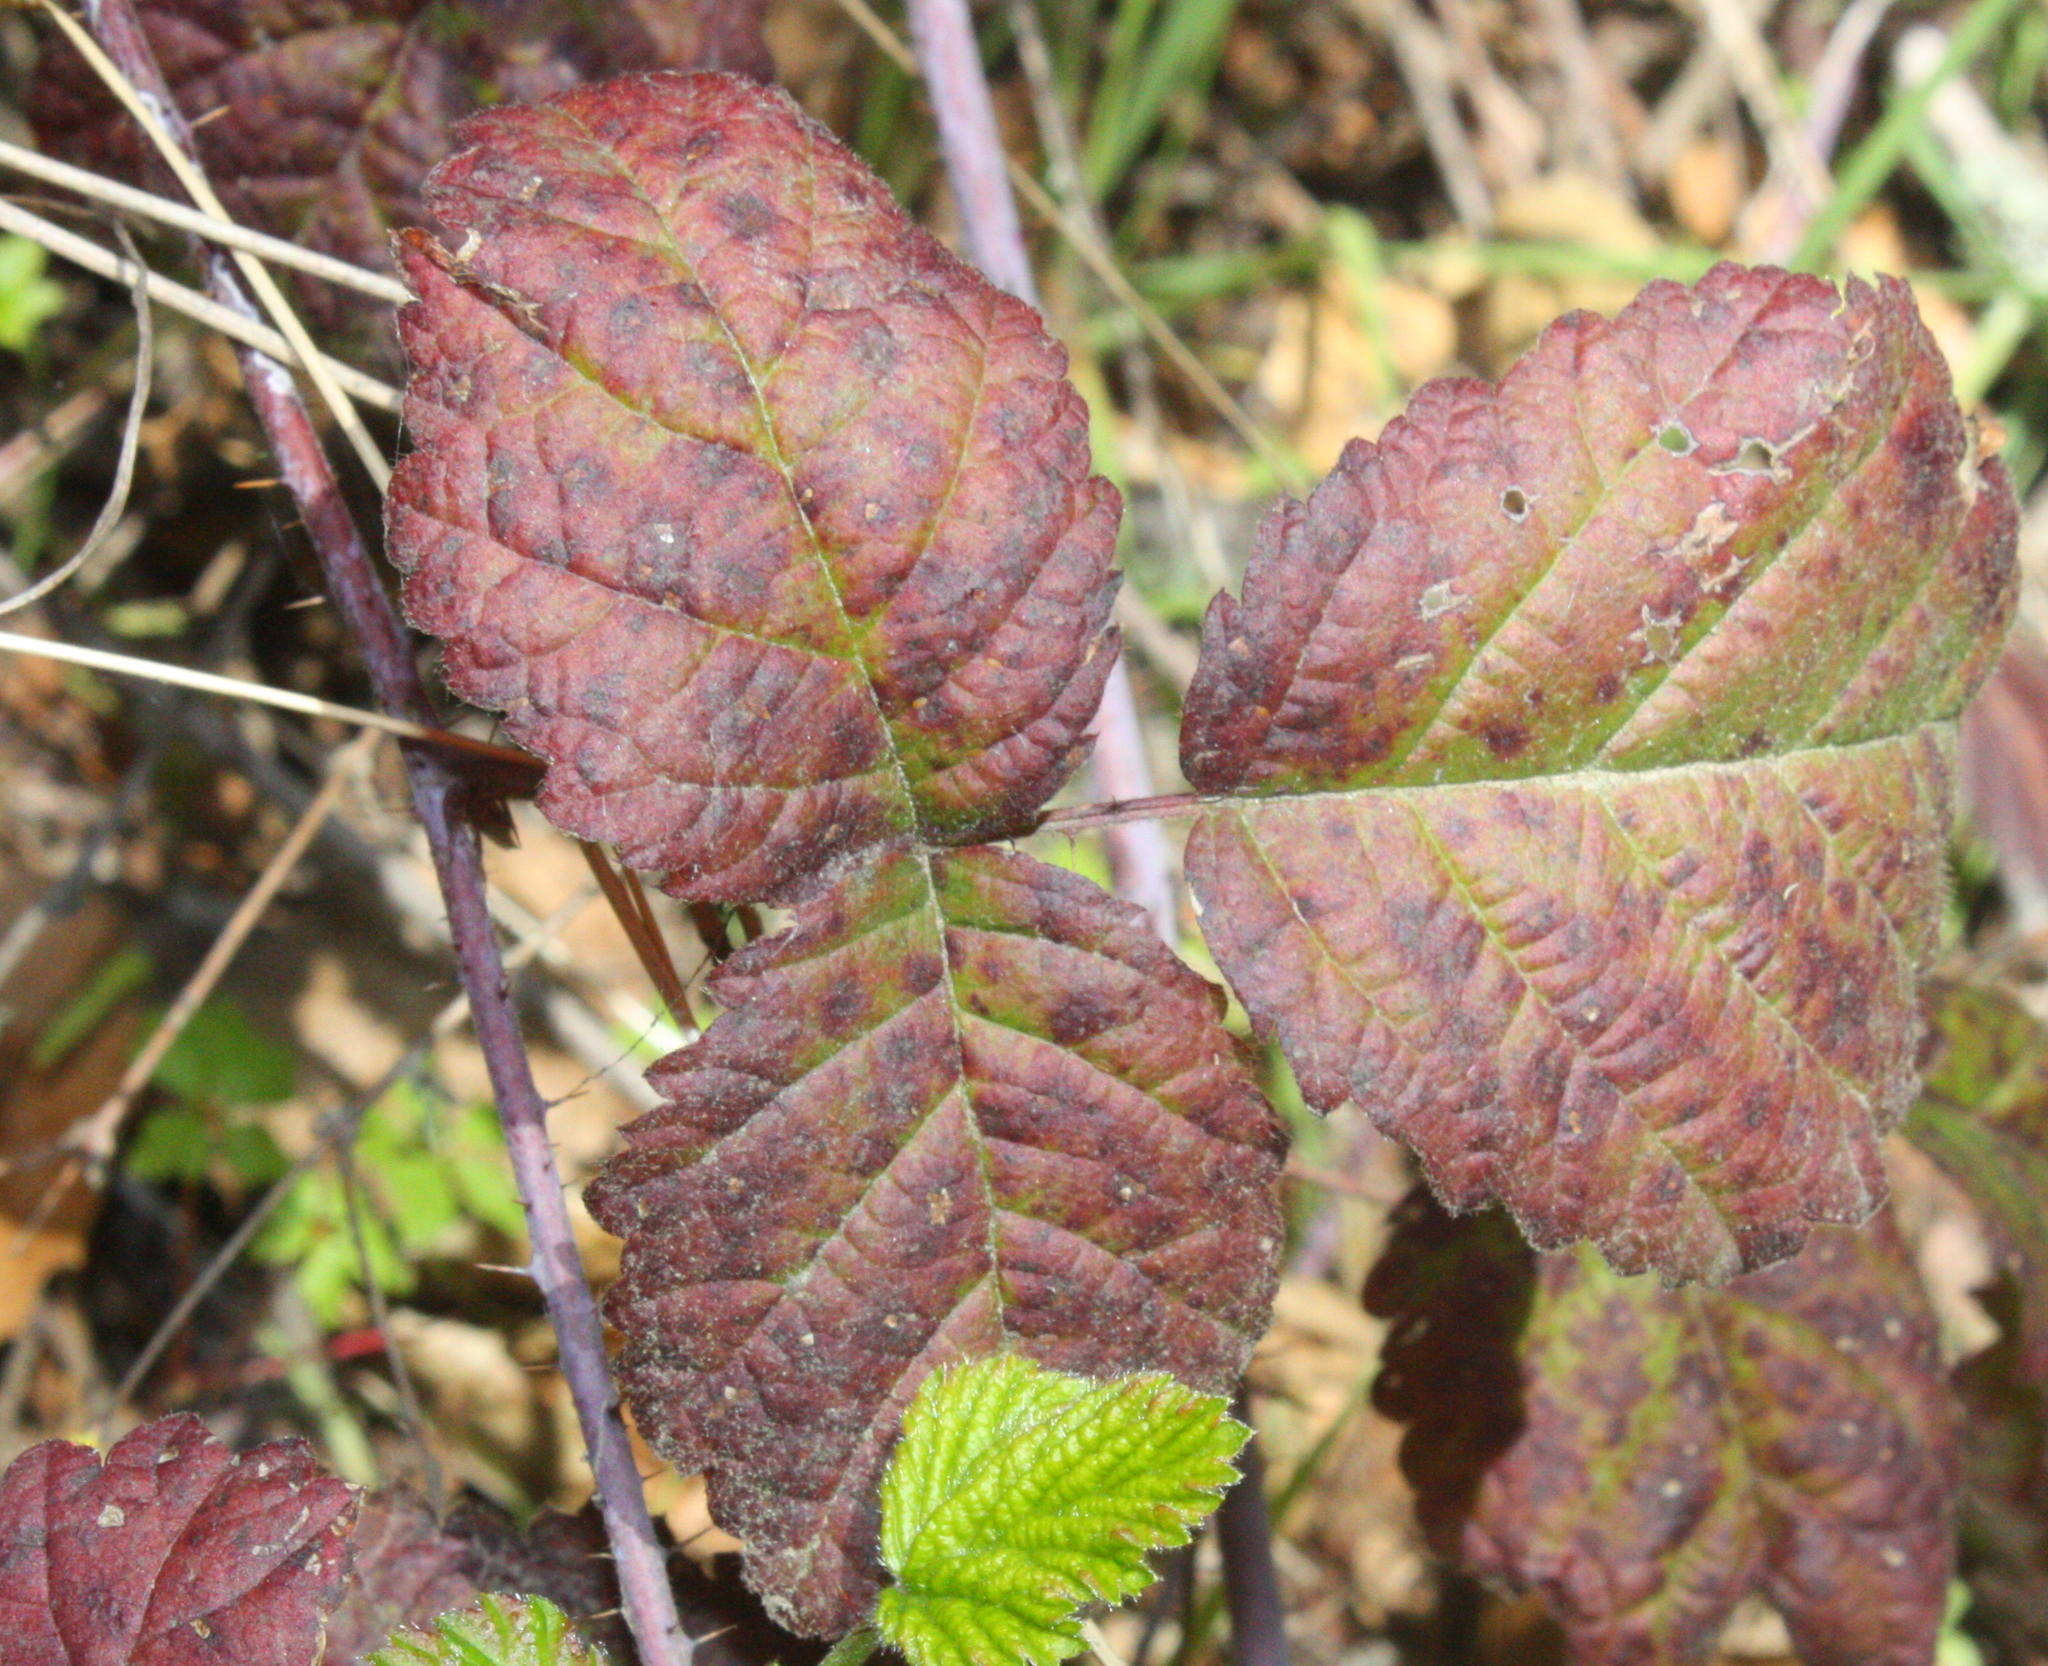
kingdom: Plantae
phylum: Tracheophyta
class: Magnoliopsida
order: Rosales
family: Rosaceae
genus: Rubus
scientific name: Rubus ursinus
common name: Pacific blackberry
